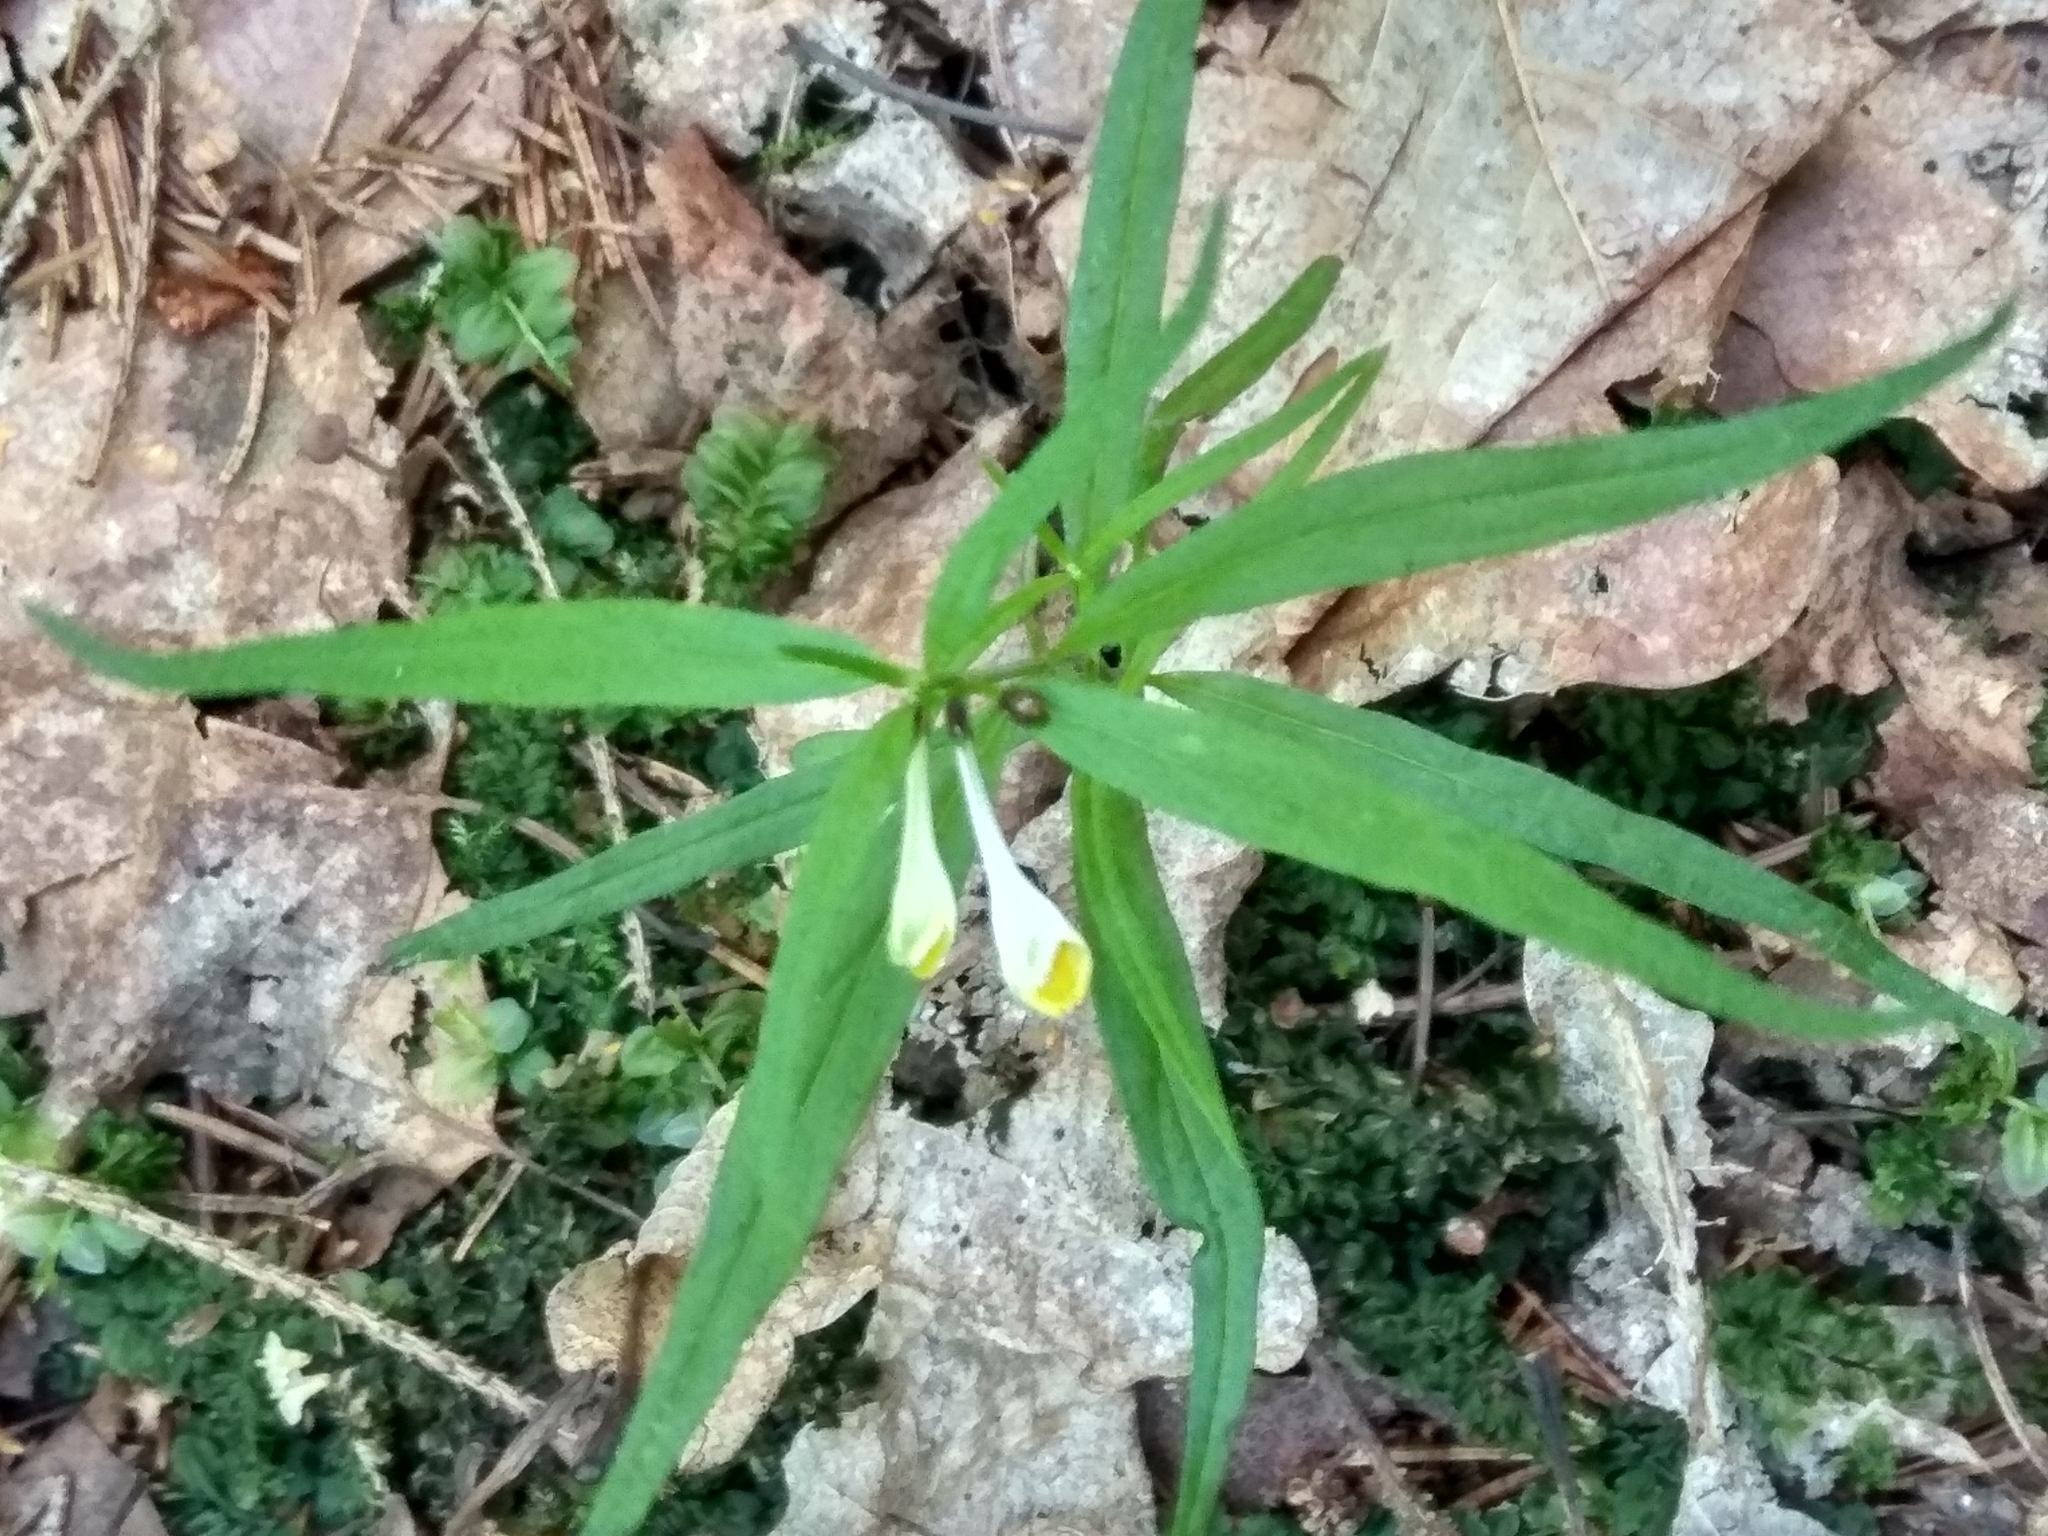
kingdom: Plantae
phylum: Tracheophyta
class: Magnoliopsida
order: Lamiales
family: Orobanchaceae
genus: Melampyrum
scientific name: Melampyrum pratense
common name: Common cow-wheat
